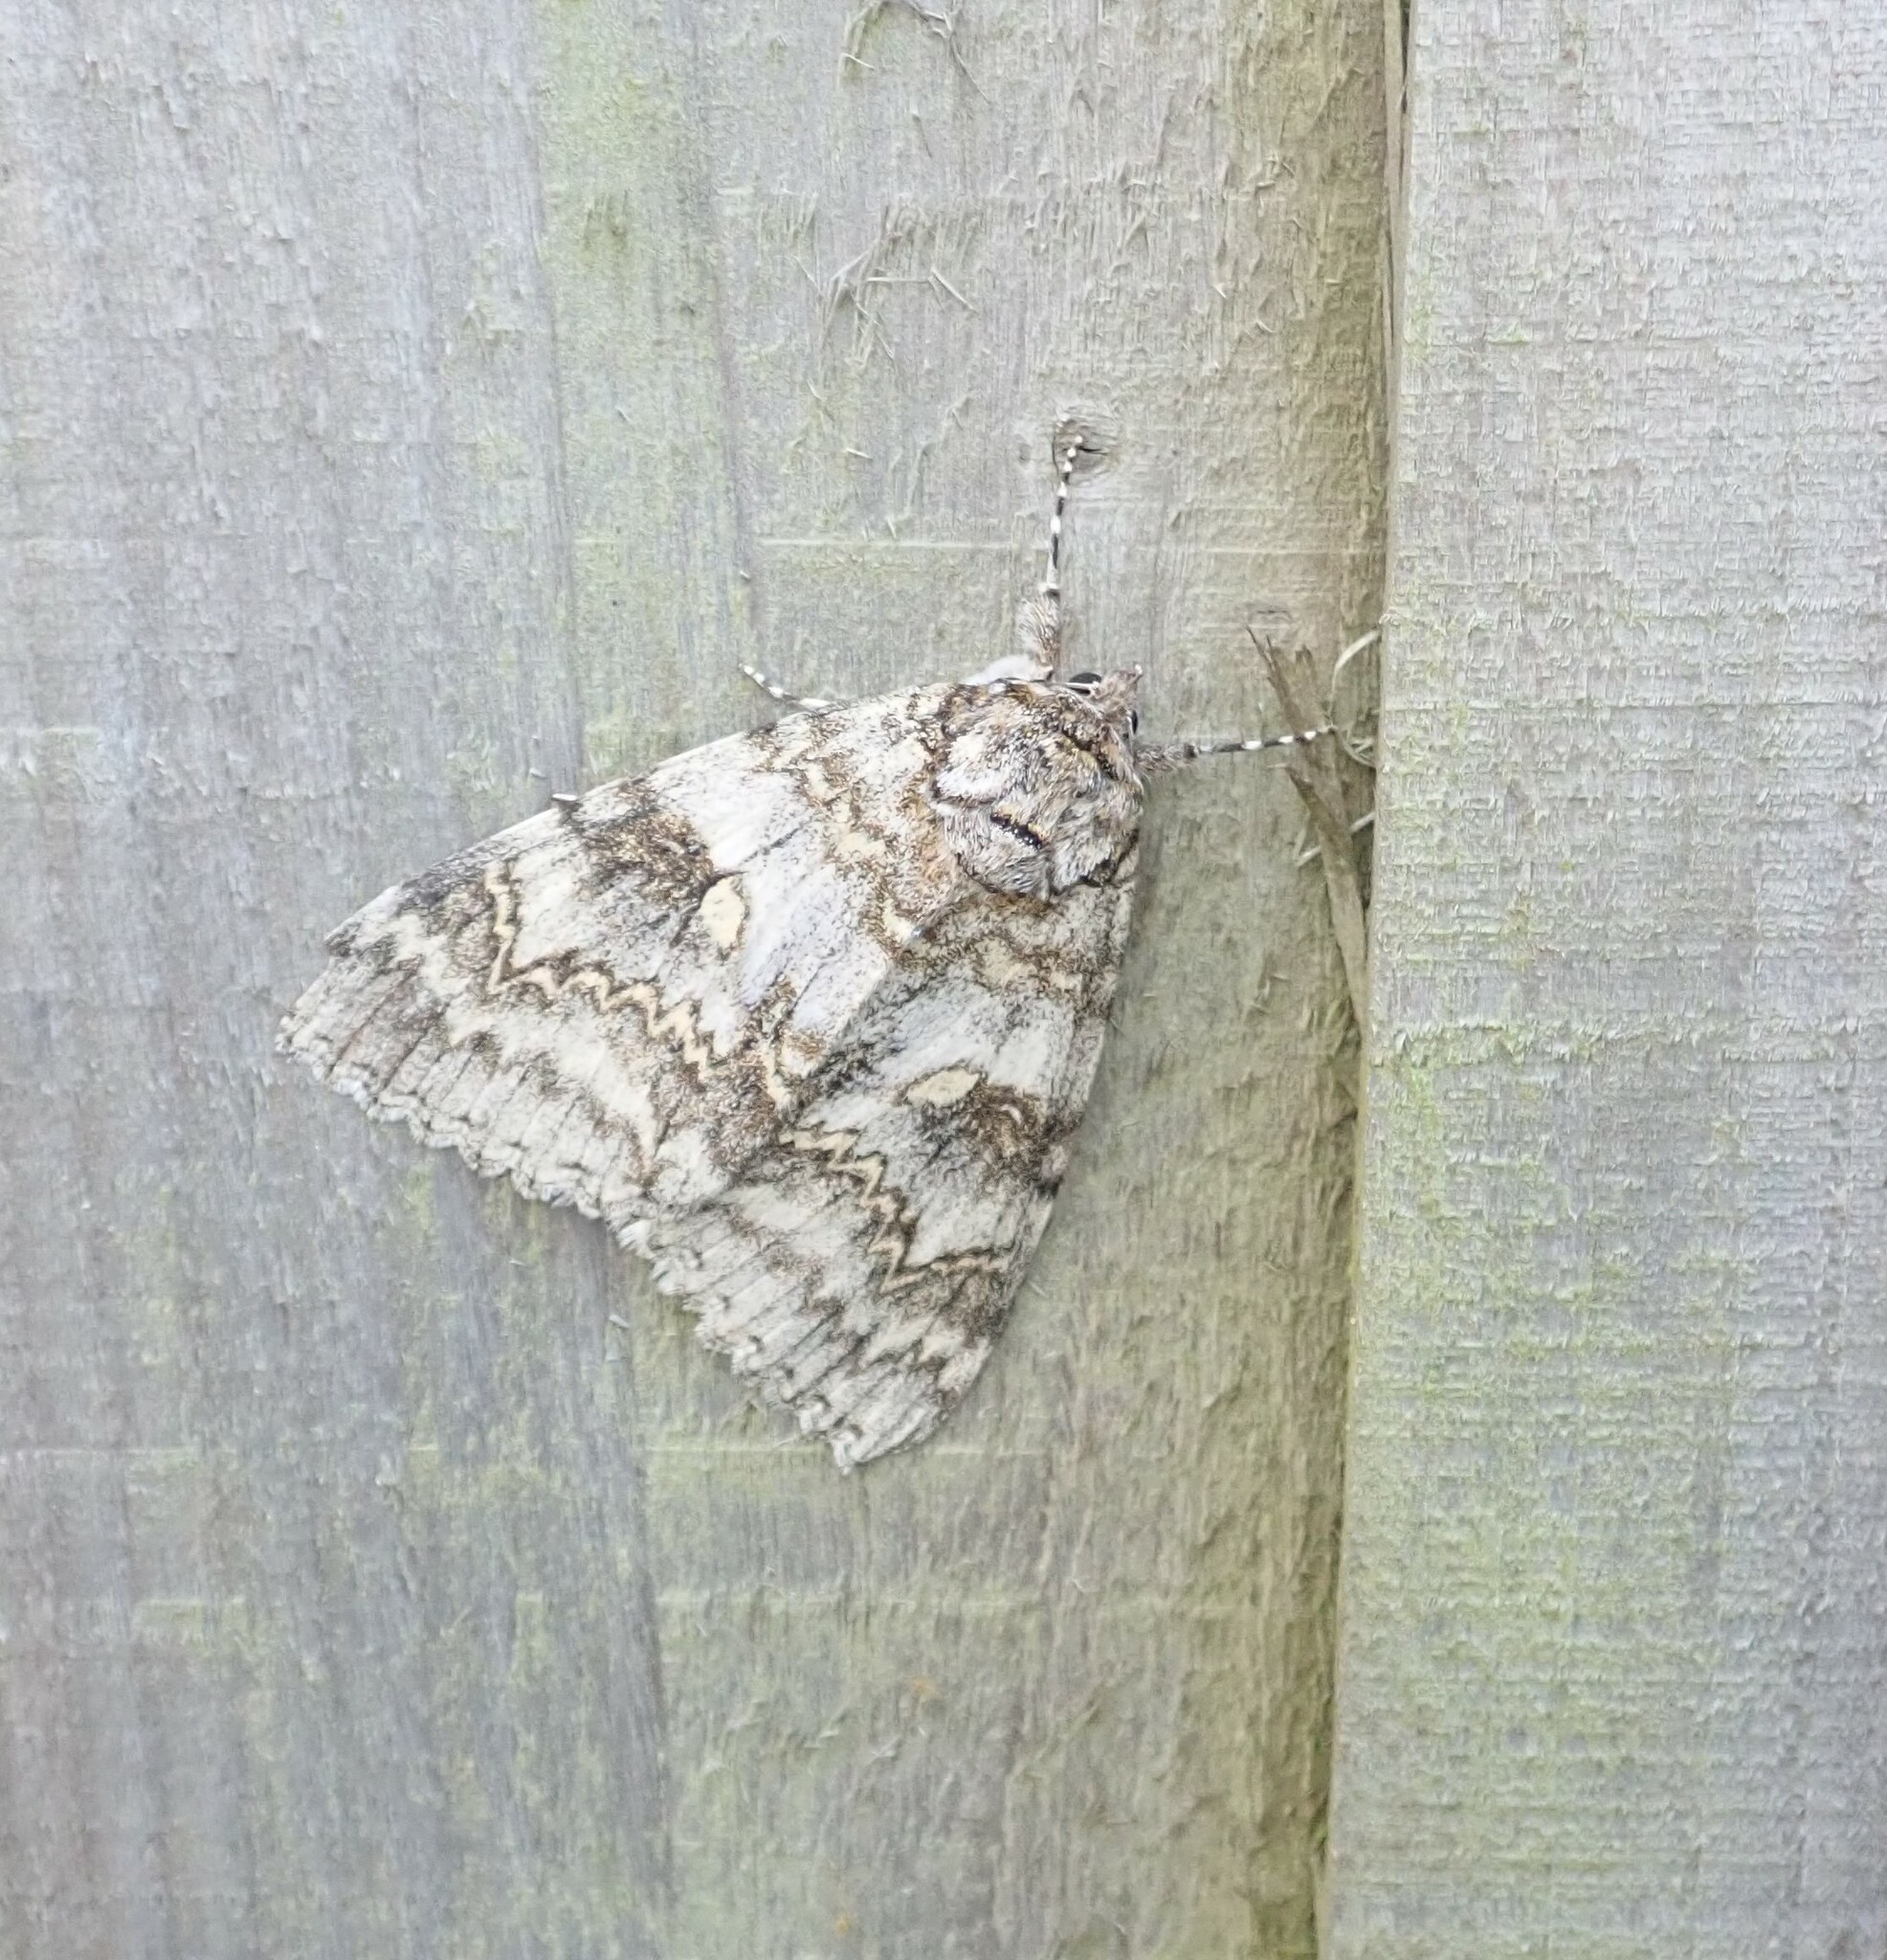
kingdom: Animalia
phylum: Arthropoda
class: Insecta
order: Lepidoptera
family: Erebidae
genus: Catocala
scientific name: Catocala fraxini
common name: Clifden nonpareil
